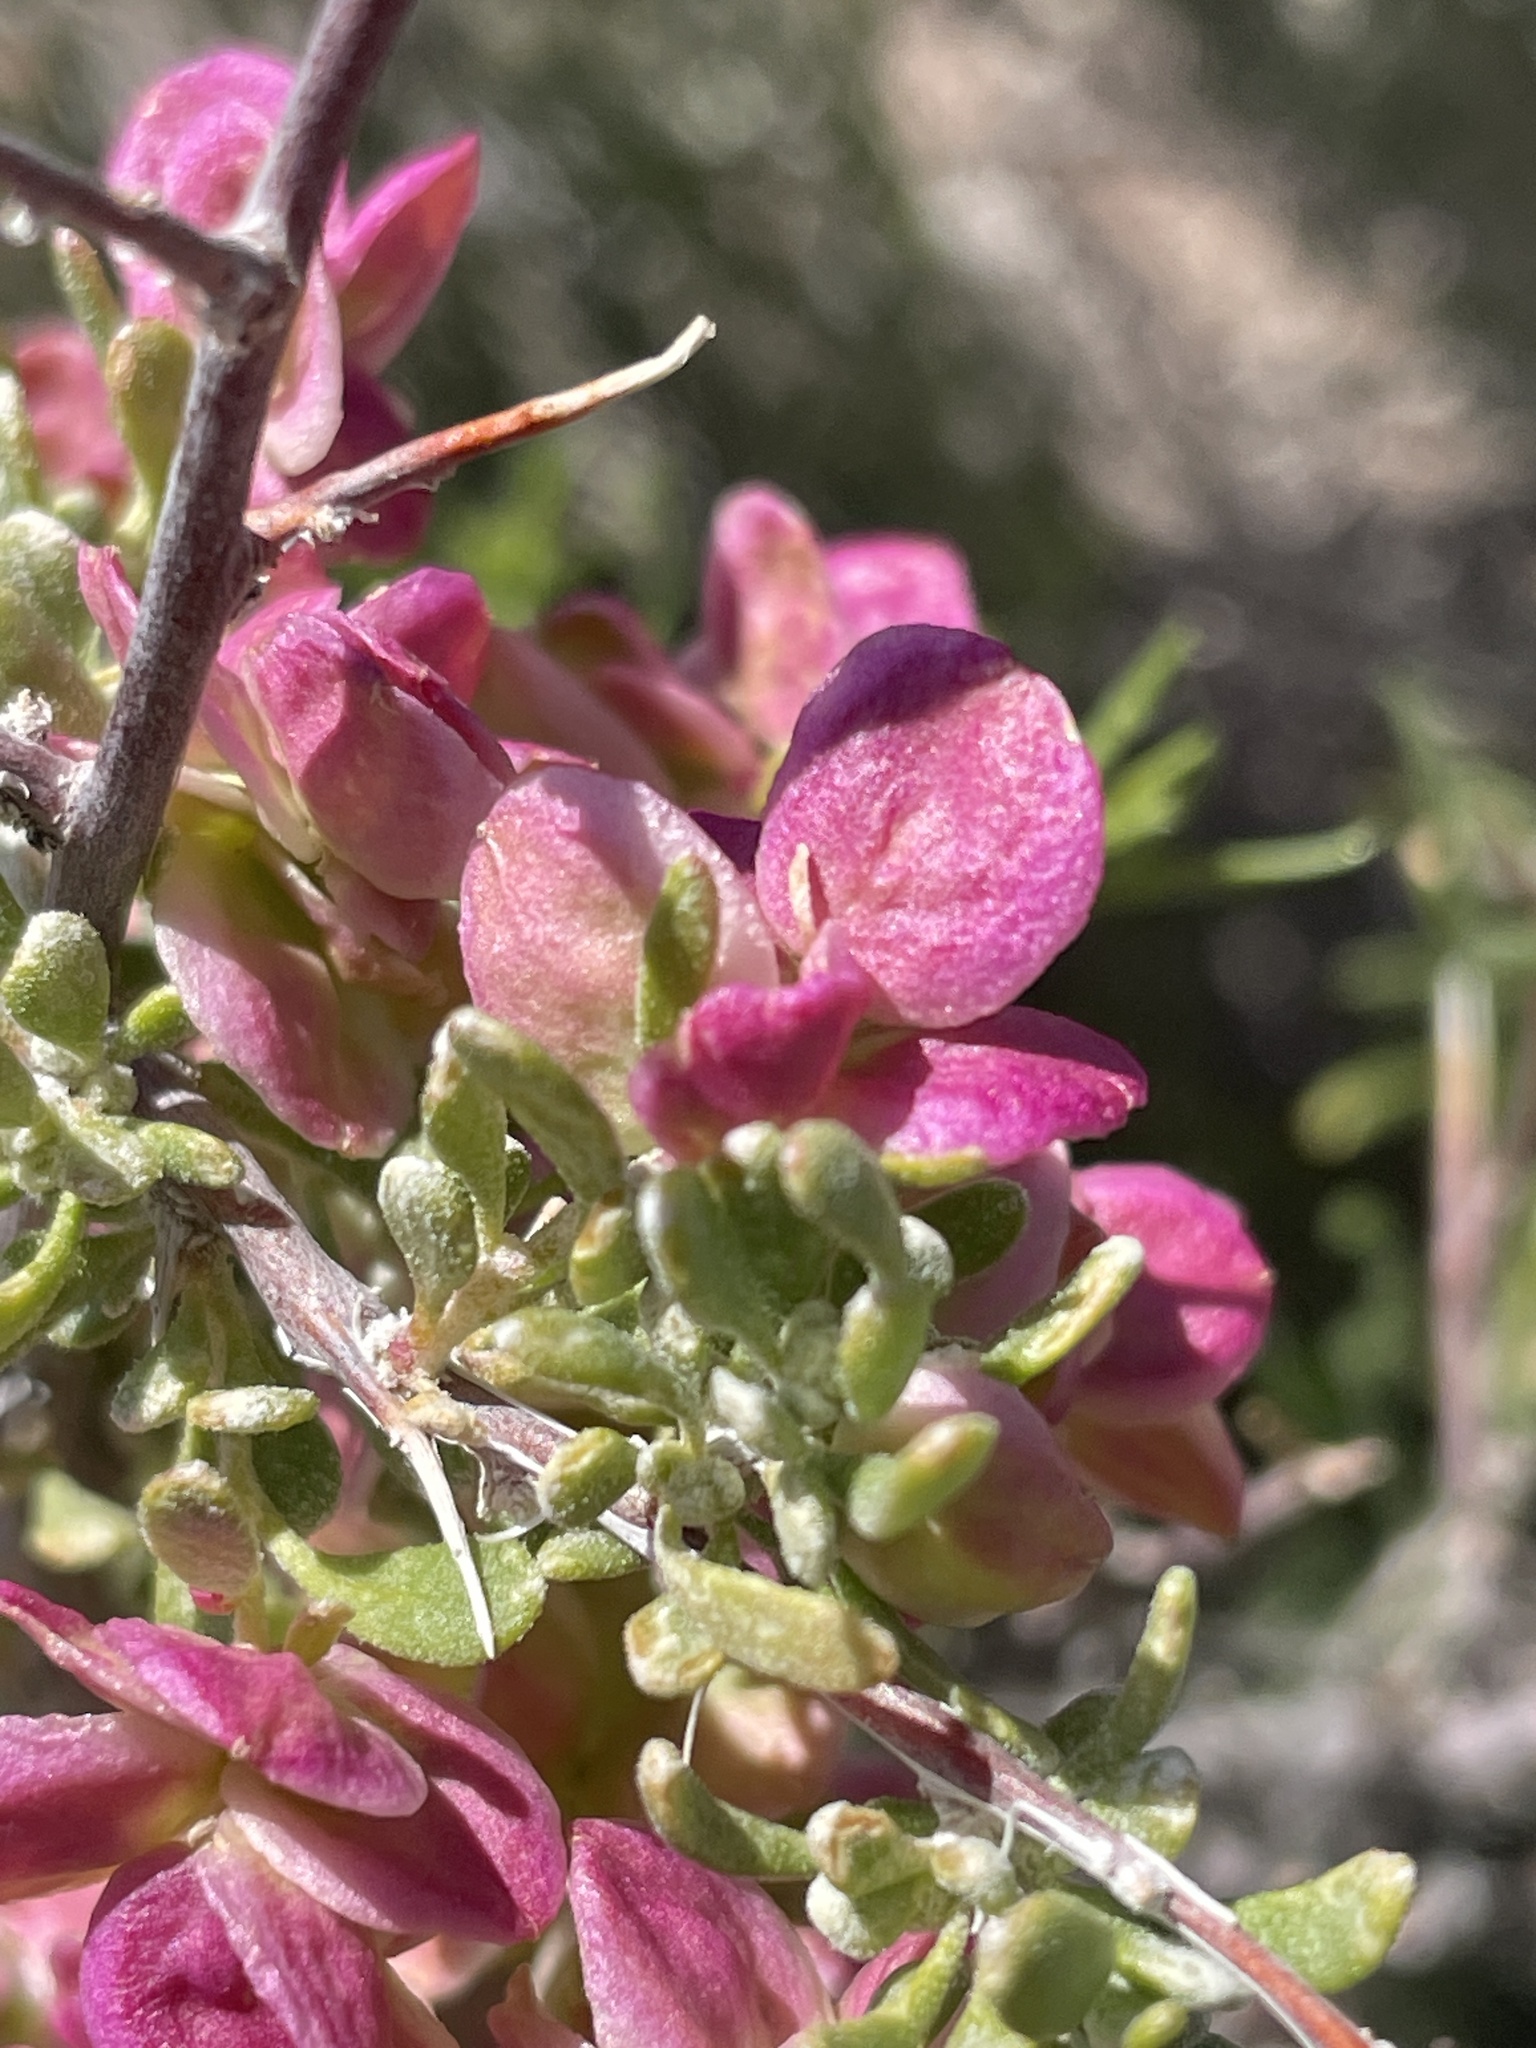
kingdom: Plantae
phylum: Tracheophyta
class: Magnoliopsida
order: Caryophyllales
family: Amaranthaceae
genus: Grayia
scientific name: Grayia spinosa
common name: Spiny hopsage
